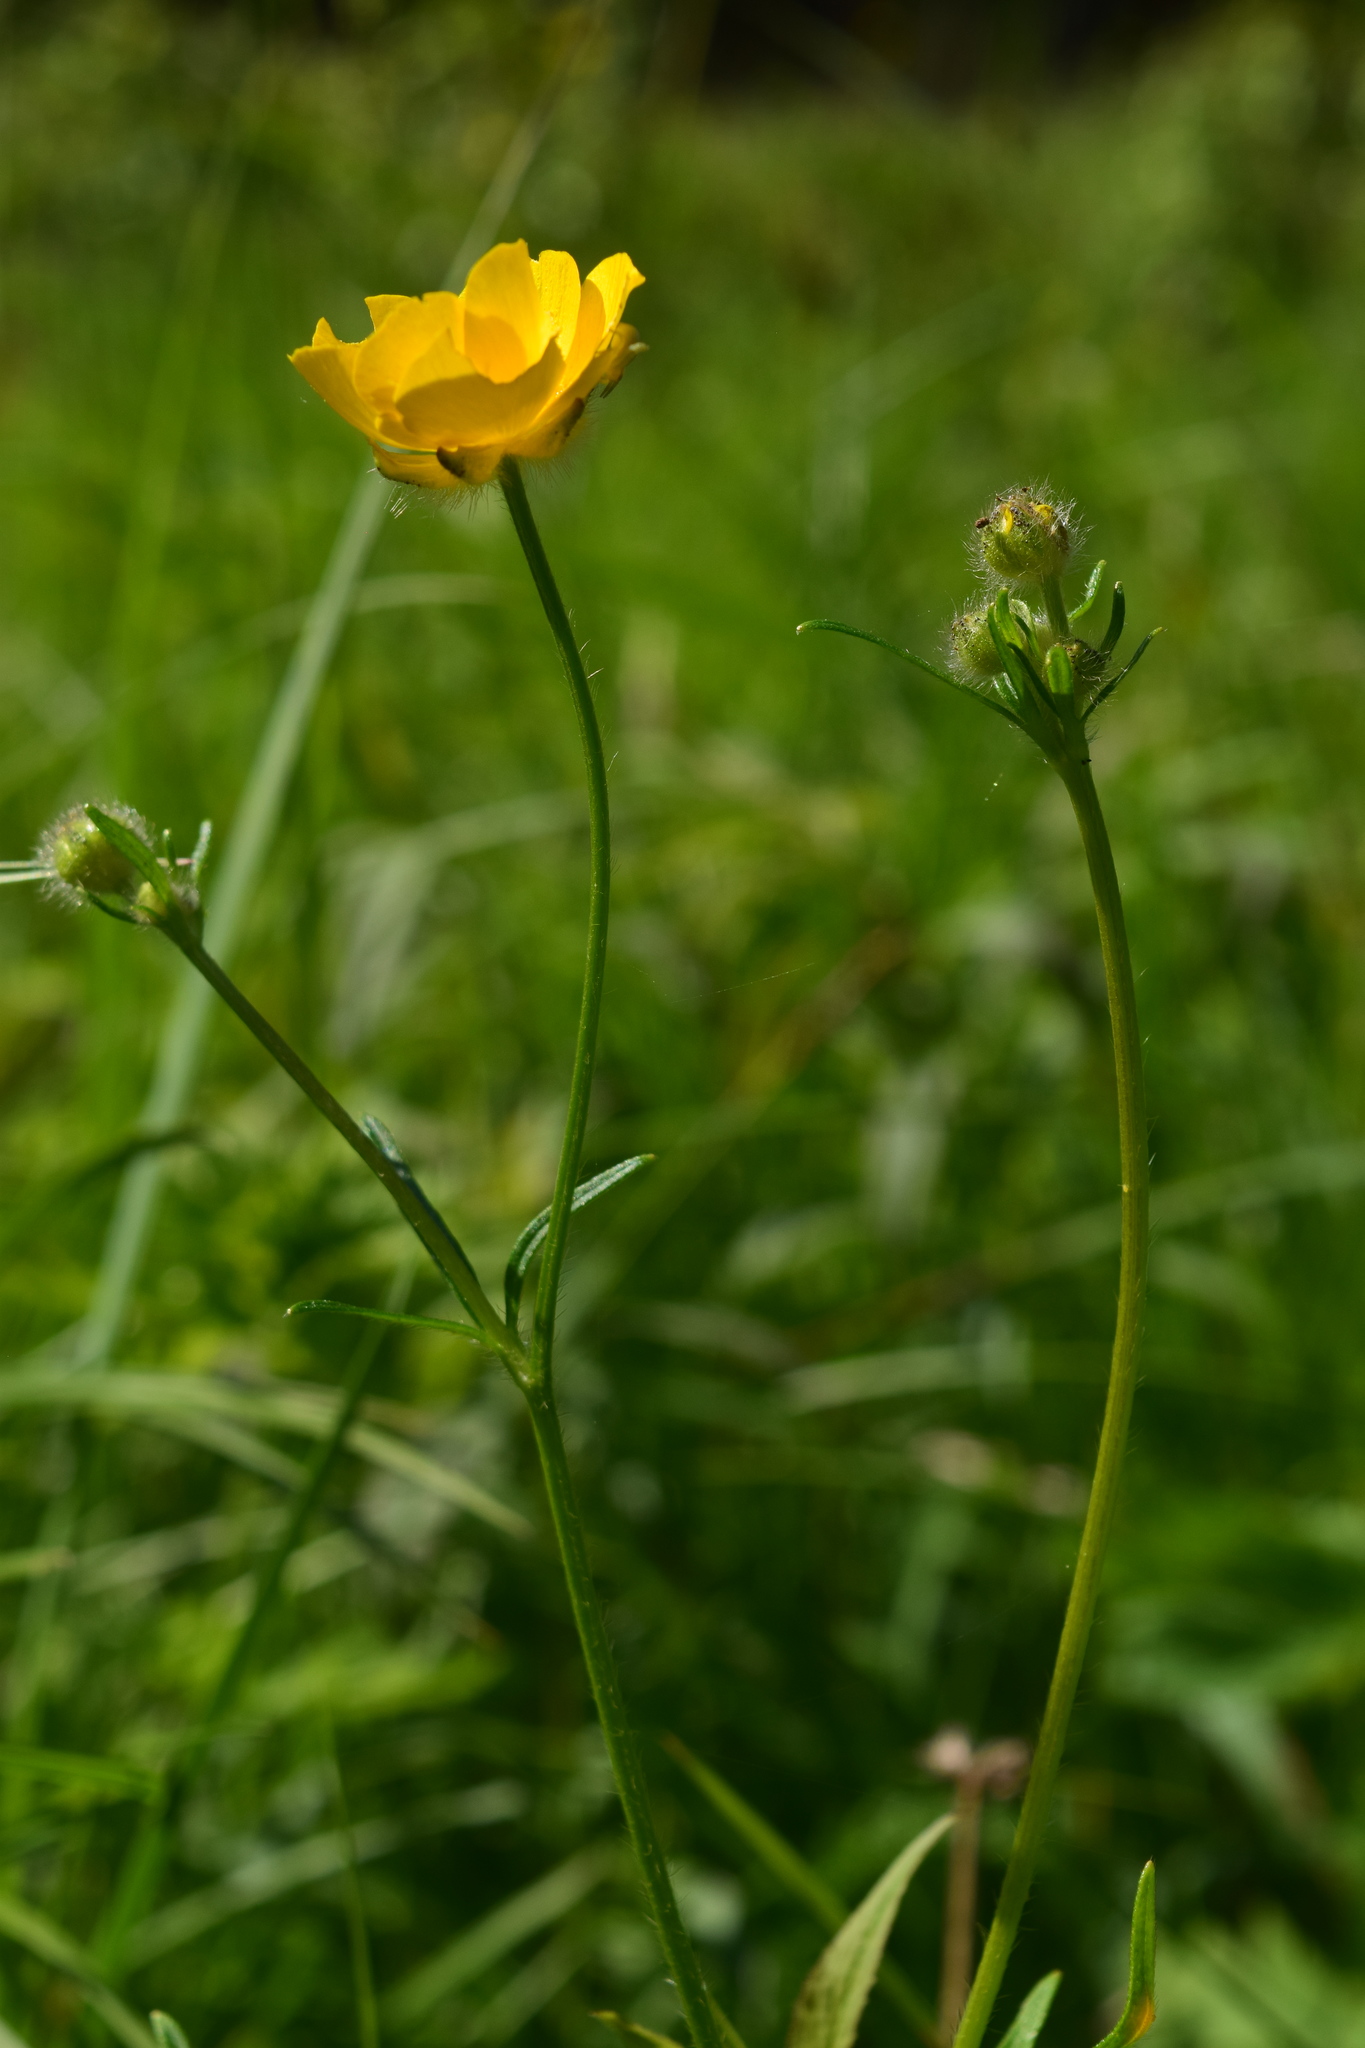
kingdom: Plantae
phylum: Tracheophyta
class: Magnoliopsida
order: Ranunculales
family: Ranunculaceae
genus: Ranunculus
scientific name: Ranunculus polyanthemos
